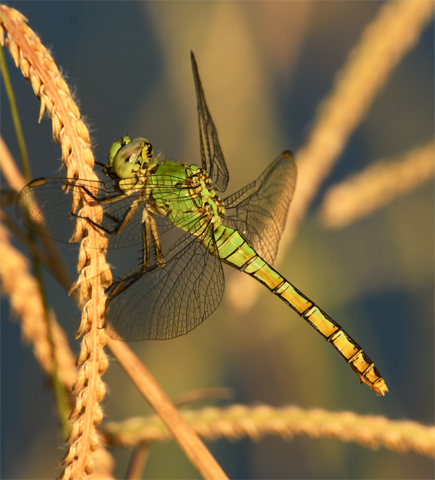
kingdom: Animalia
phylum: Arthropoda
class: Insecta
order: Odonata
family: Libellulidae
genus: Erythemis
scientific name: Erythemis collocata
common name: Western pondhawk
